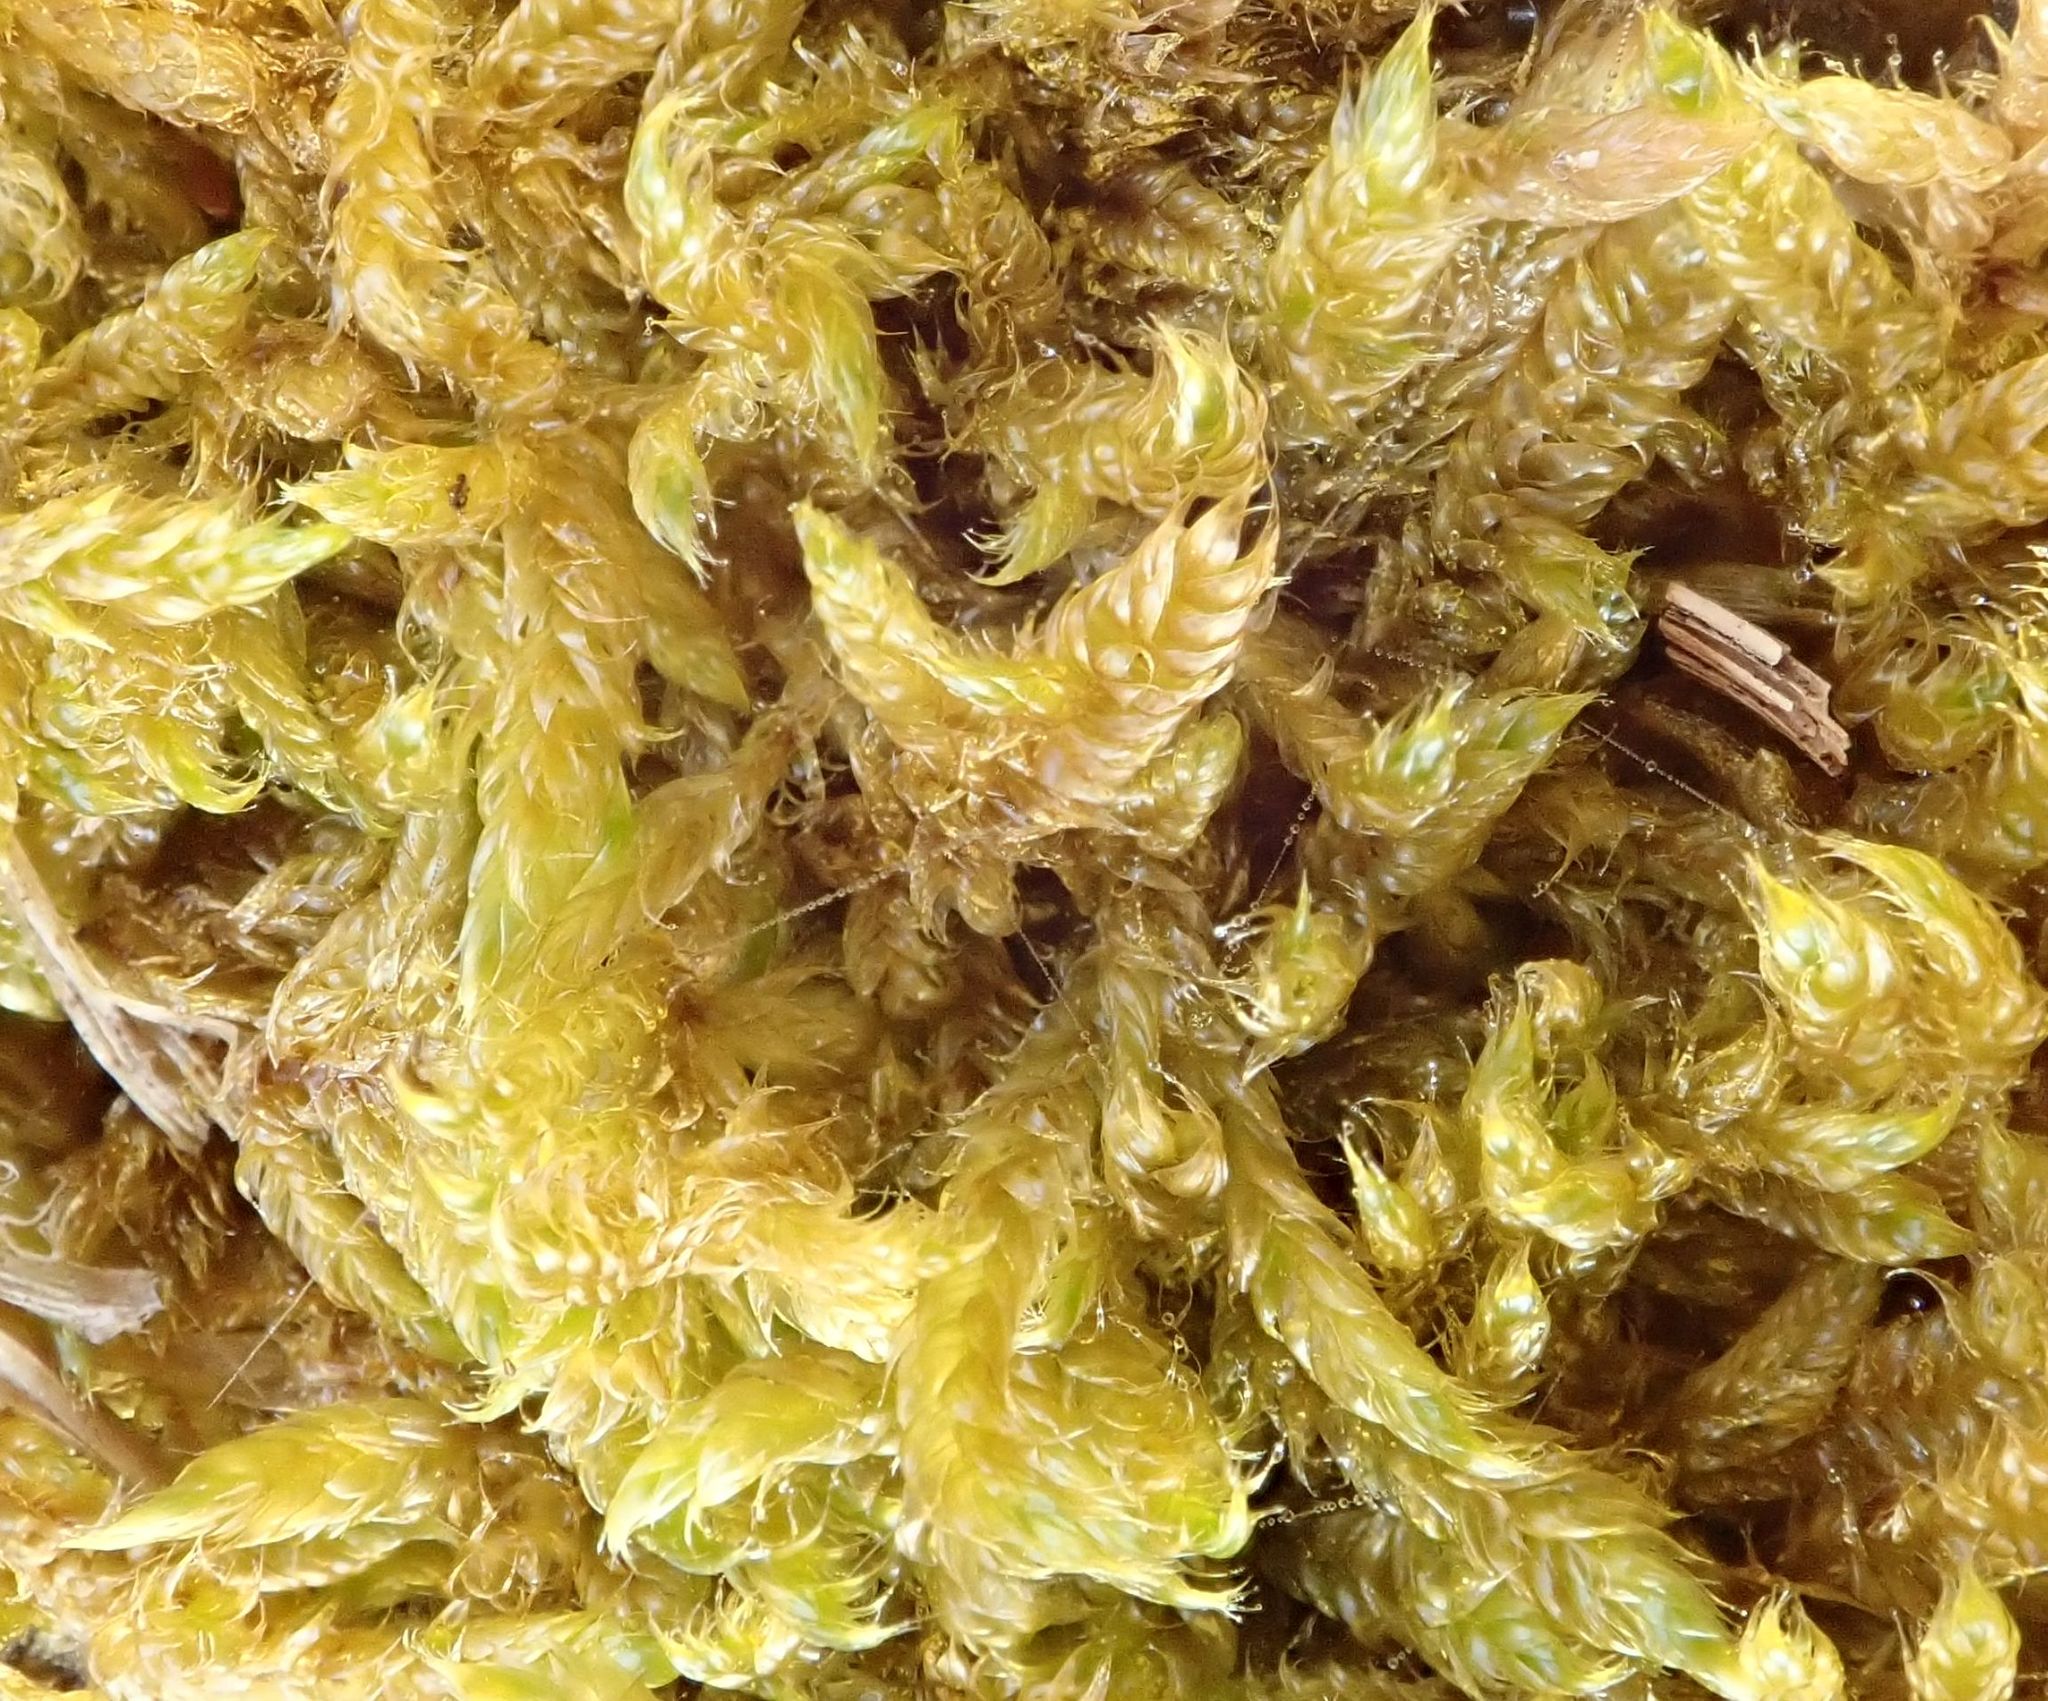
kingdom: Plantae
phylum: Bryophyta
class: Bryopsida
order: Hypnales
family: Hypnaceae
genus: Hypnum
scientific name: Hypnum cupressiforme
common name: Cypress-leaved plait-moss
